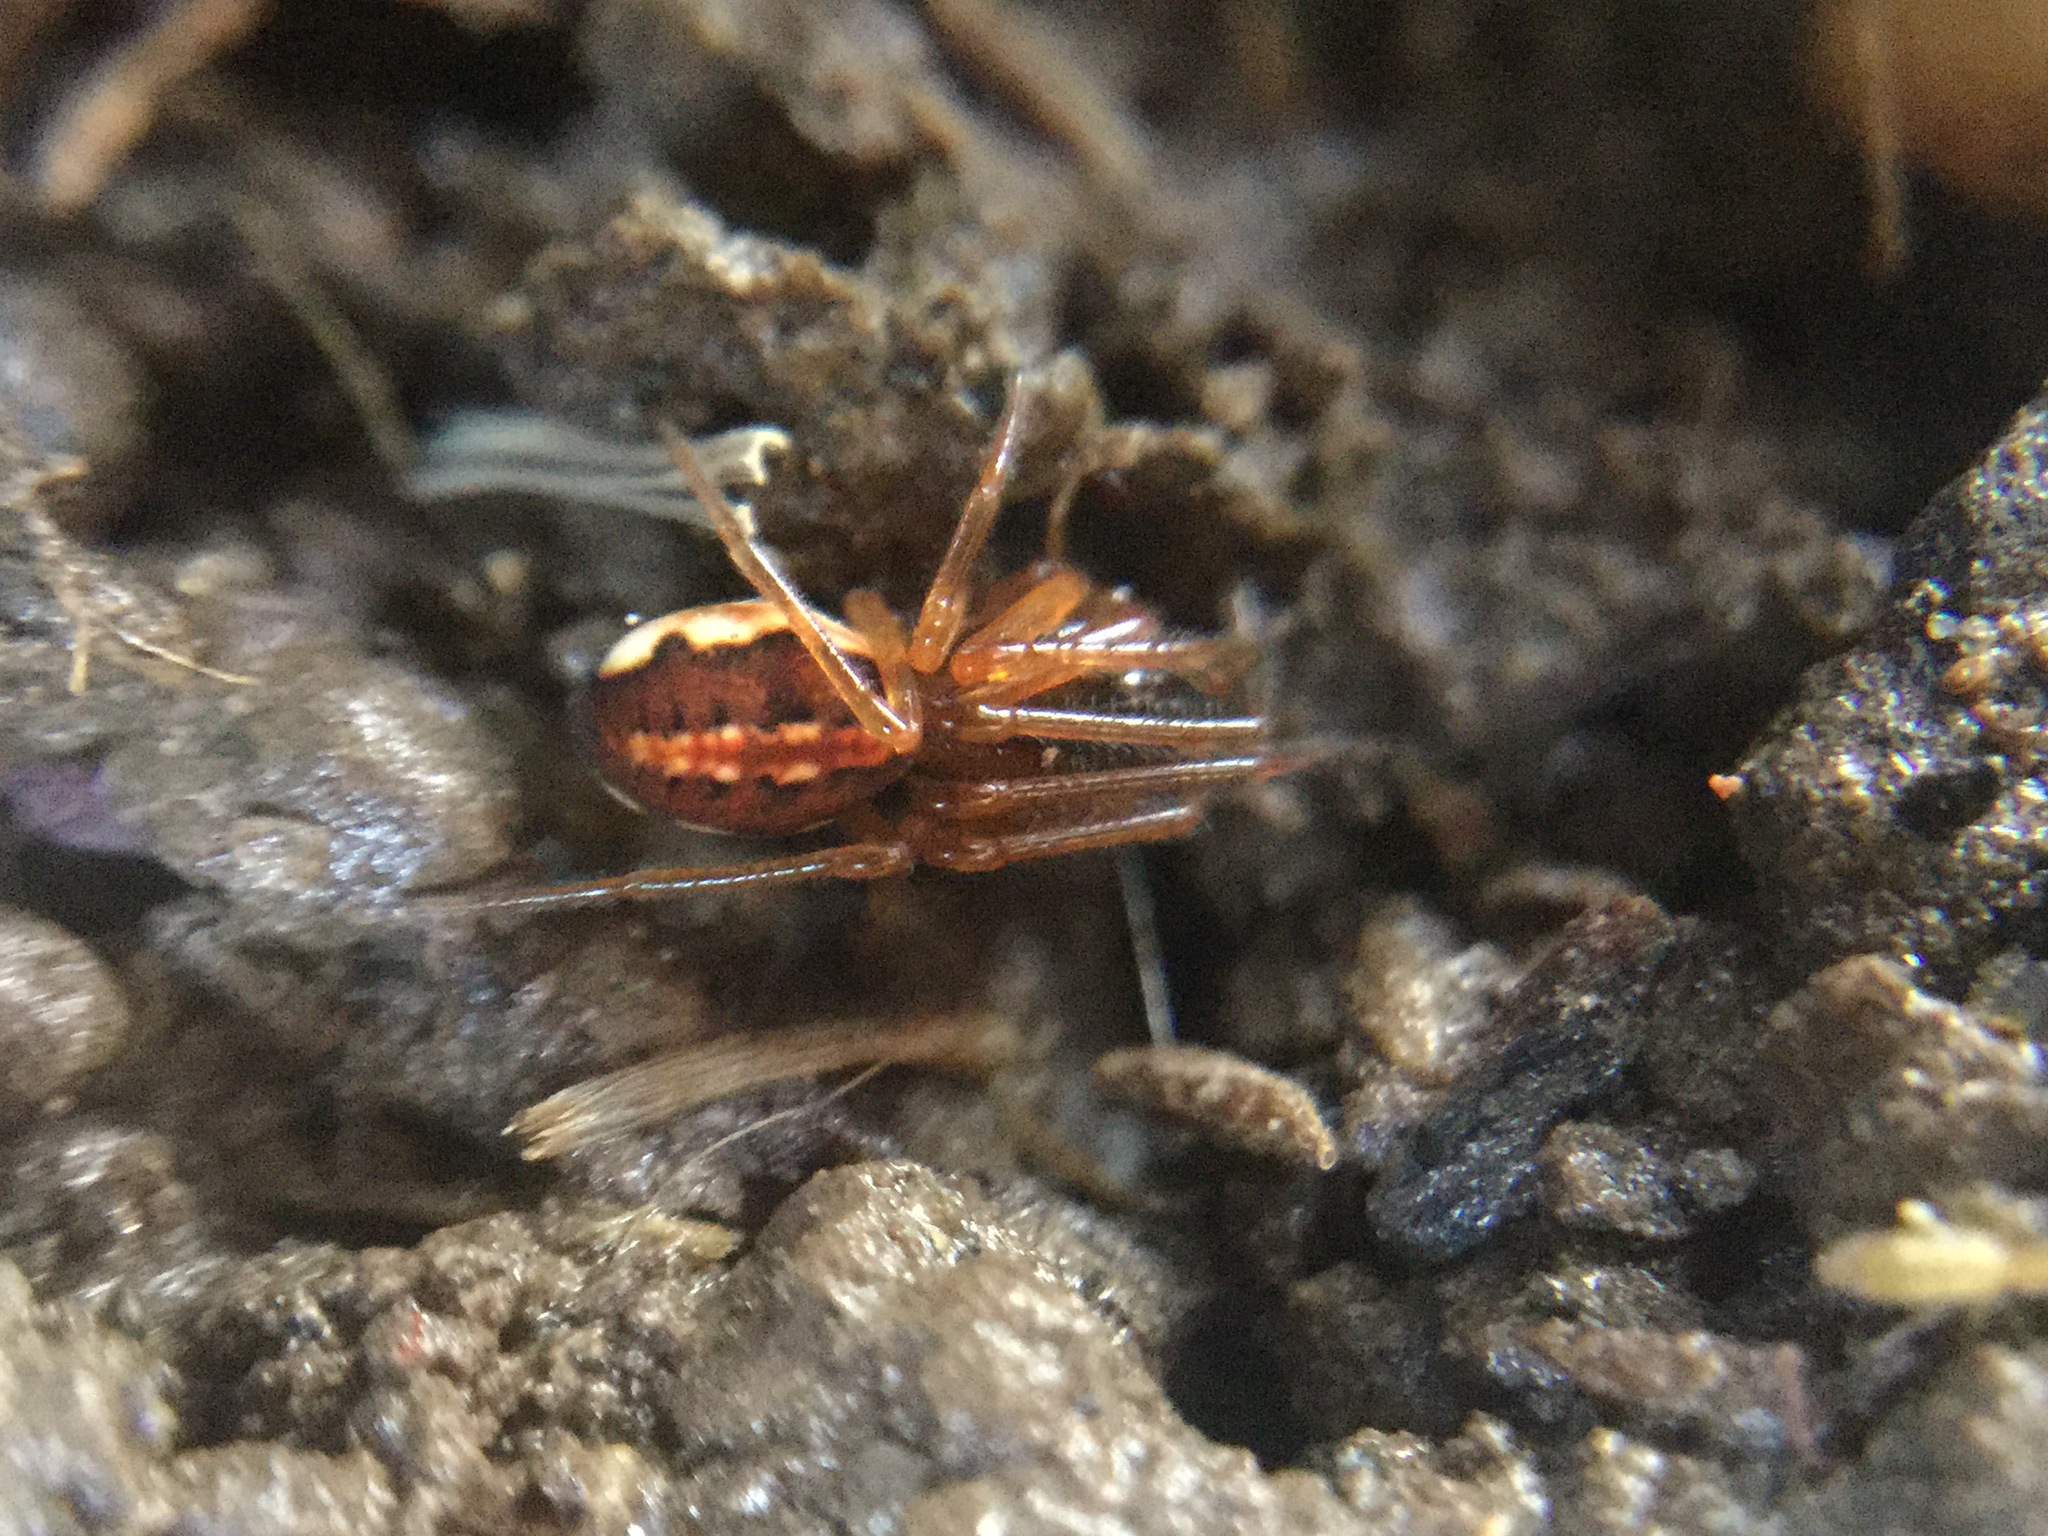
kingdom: Animalia
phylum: Arthropoda
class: Arachnida
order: Araneae
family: Tetragnathidae
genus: Pachygnatha
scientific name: Pachygnatha autumnalis
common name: Big-eyed thick-jawed spider
